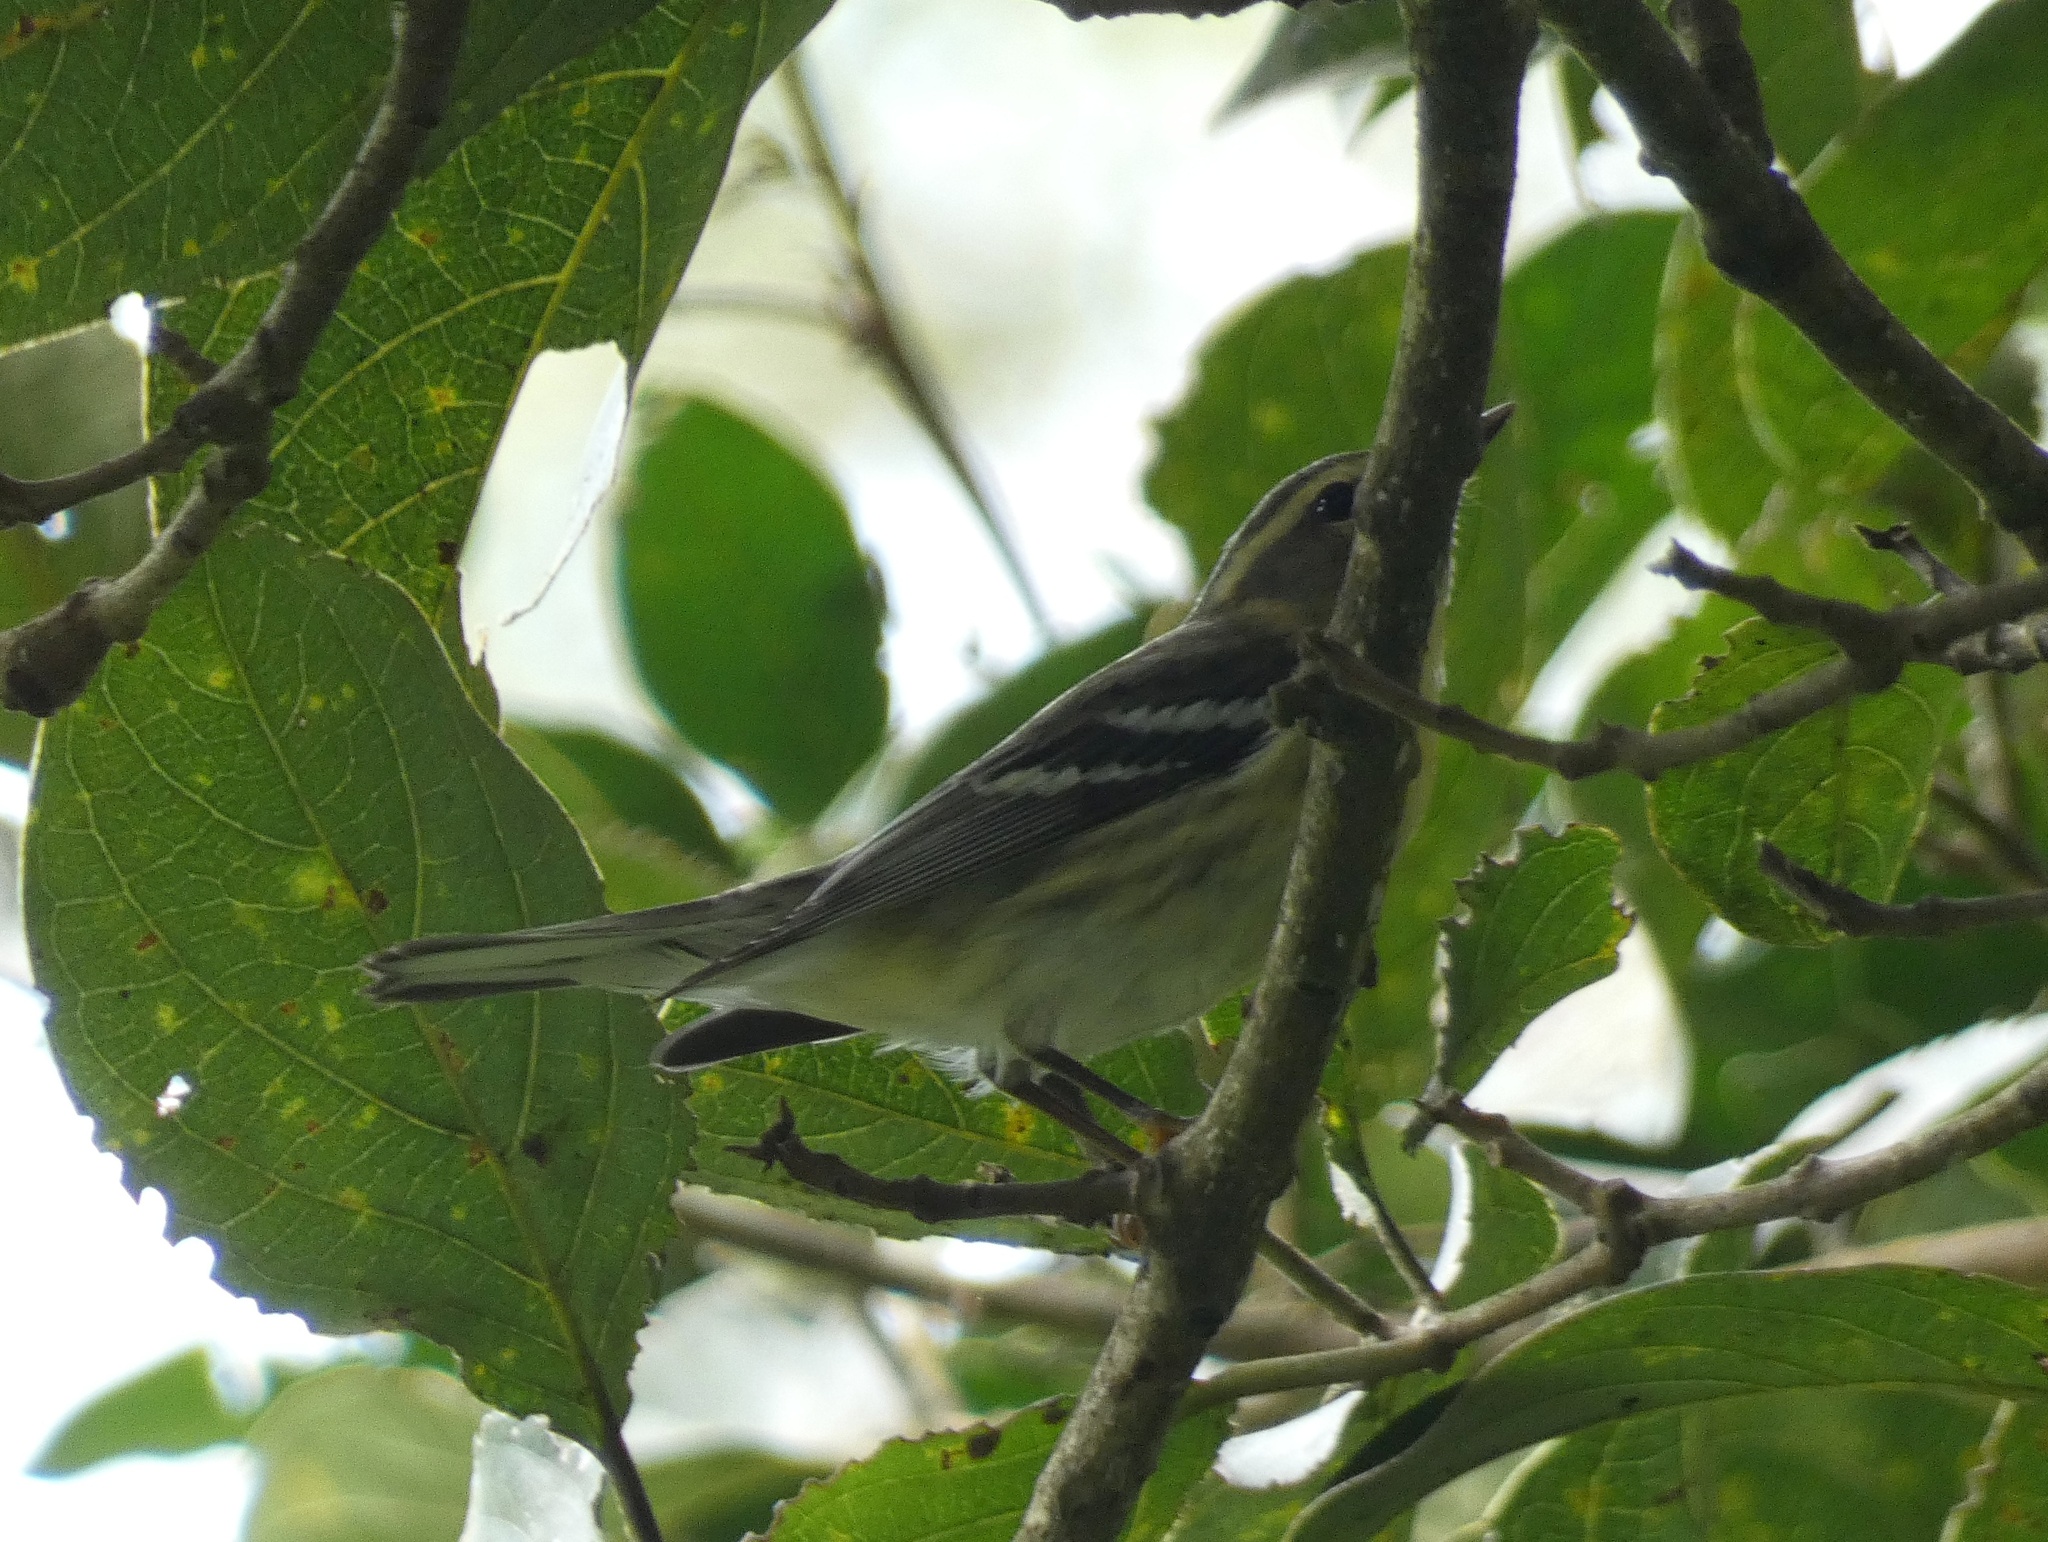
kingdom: Animalia
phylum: Chordata
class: Aves
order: Passeriformes
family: Parulidae
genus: Setophaga
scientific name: Setophaga fusca
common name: Blackburnian warbler
